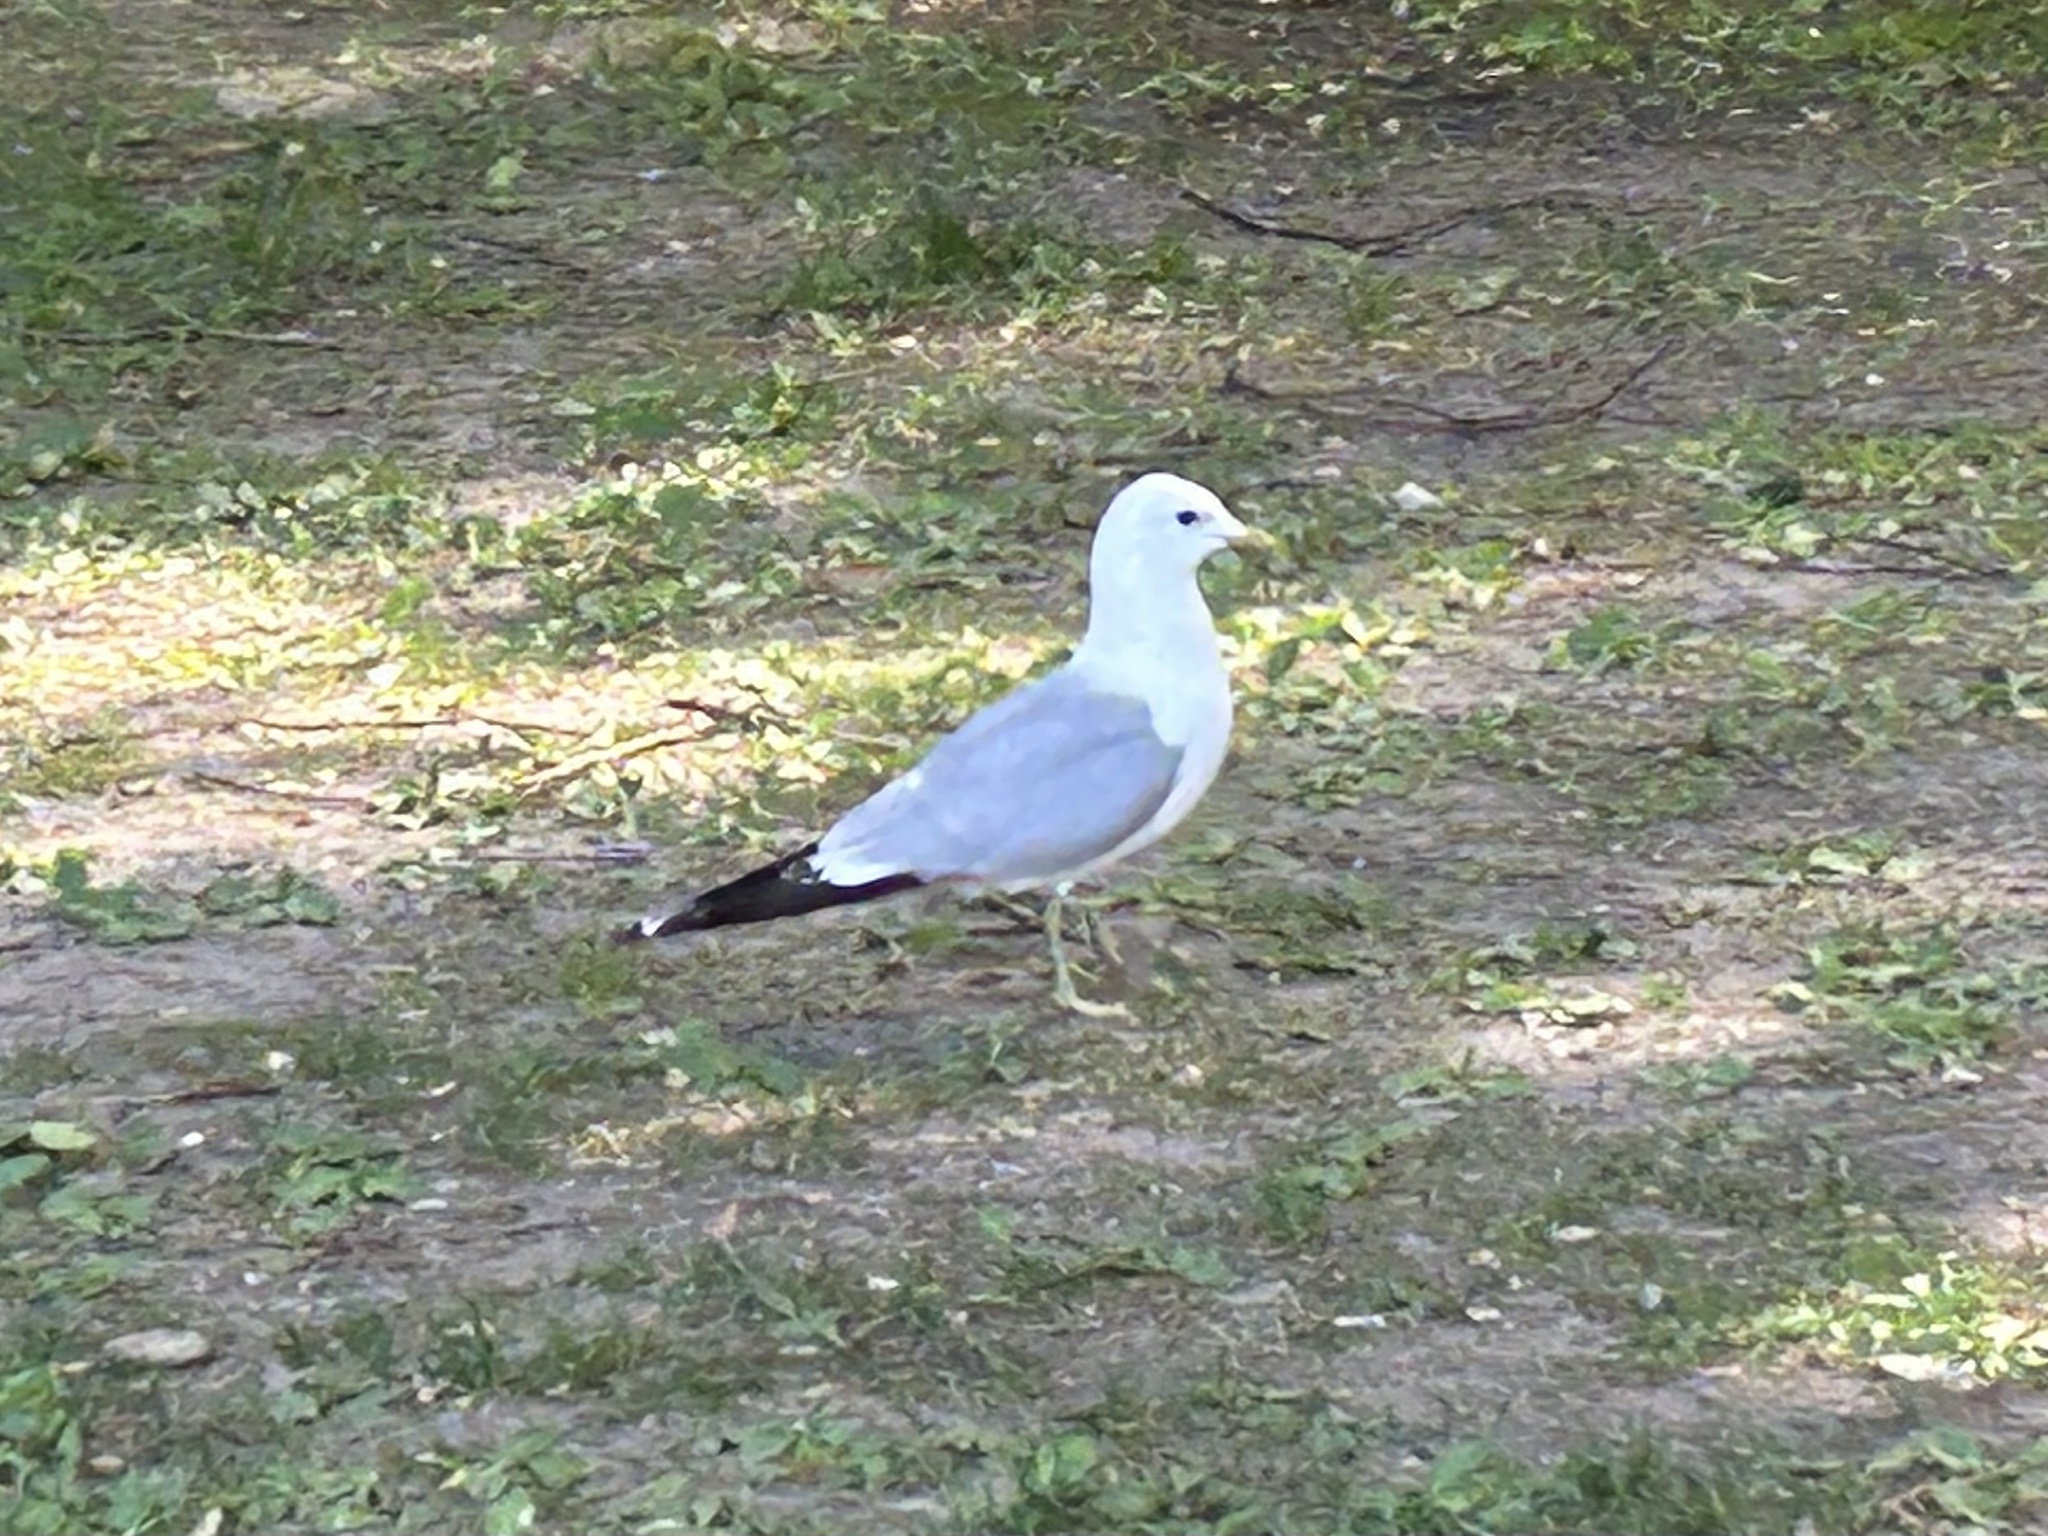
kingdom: Animalia
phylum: Chordata
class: Aves
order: Charadriiformes
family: Laridae
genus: Larus
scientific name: Larus canus
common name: Mew gull
